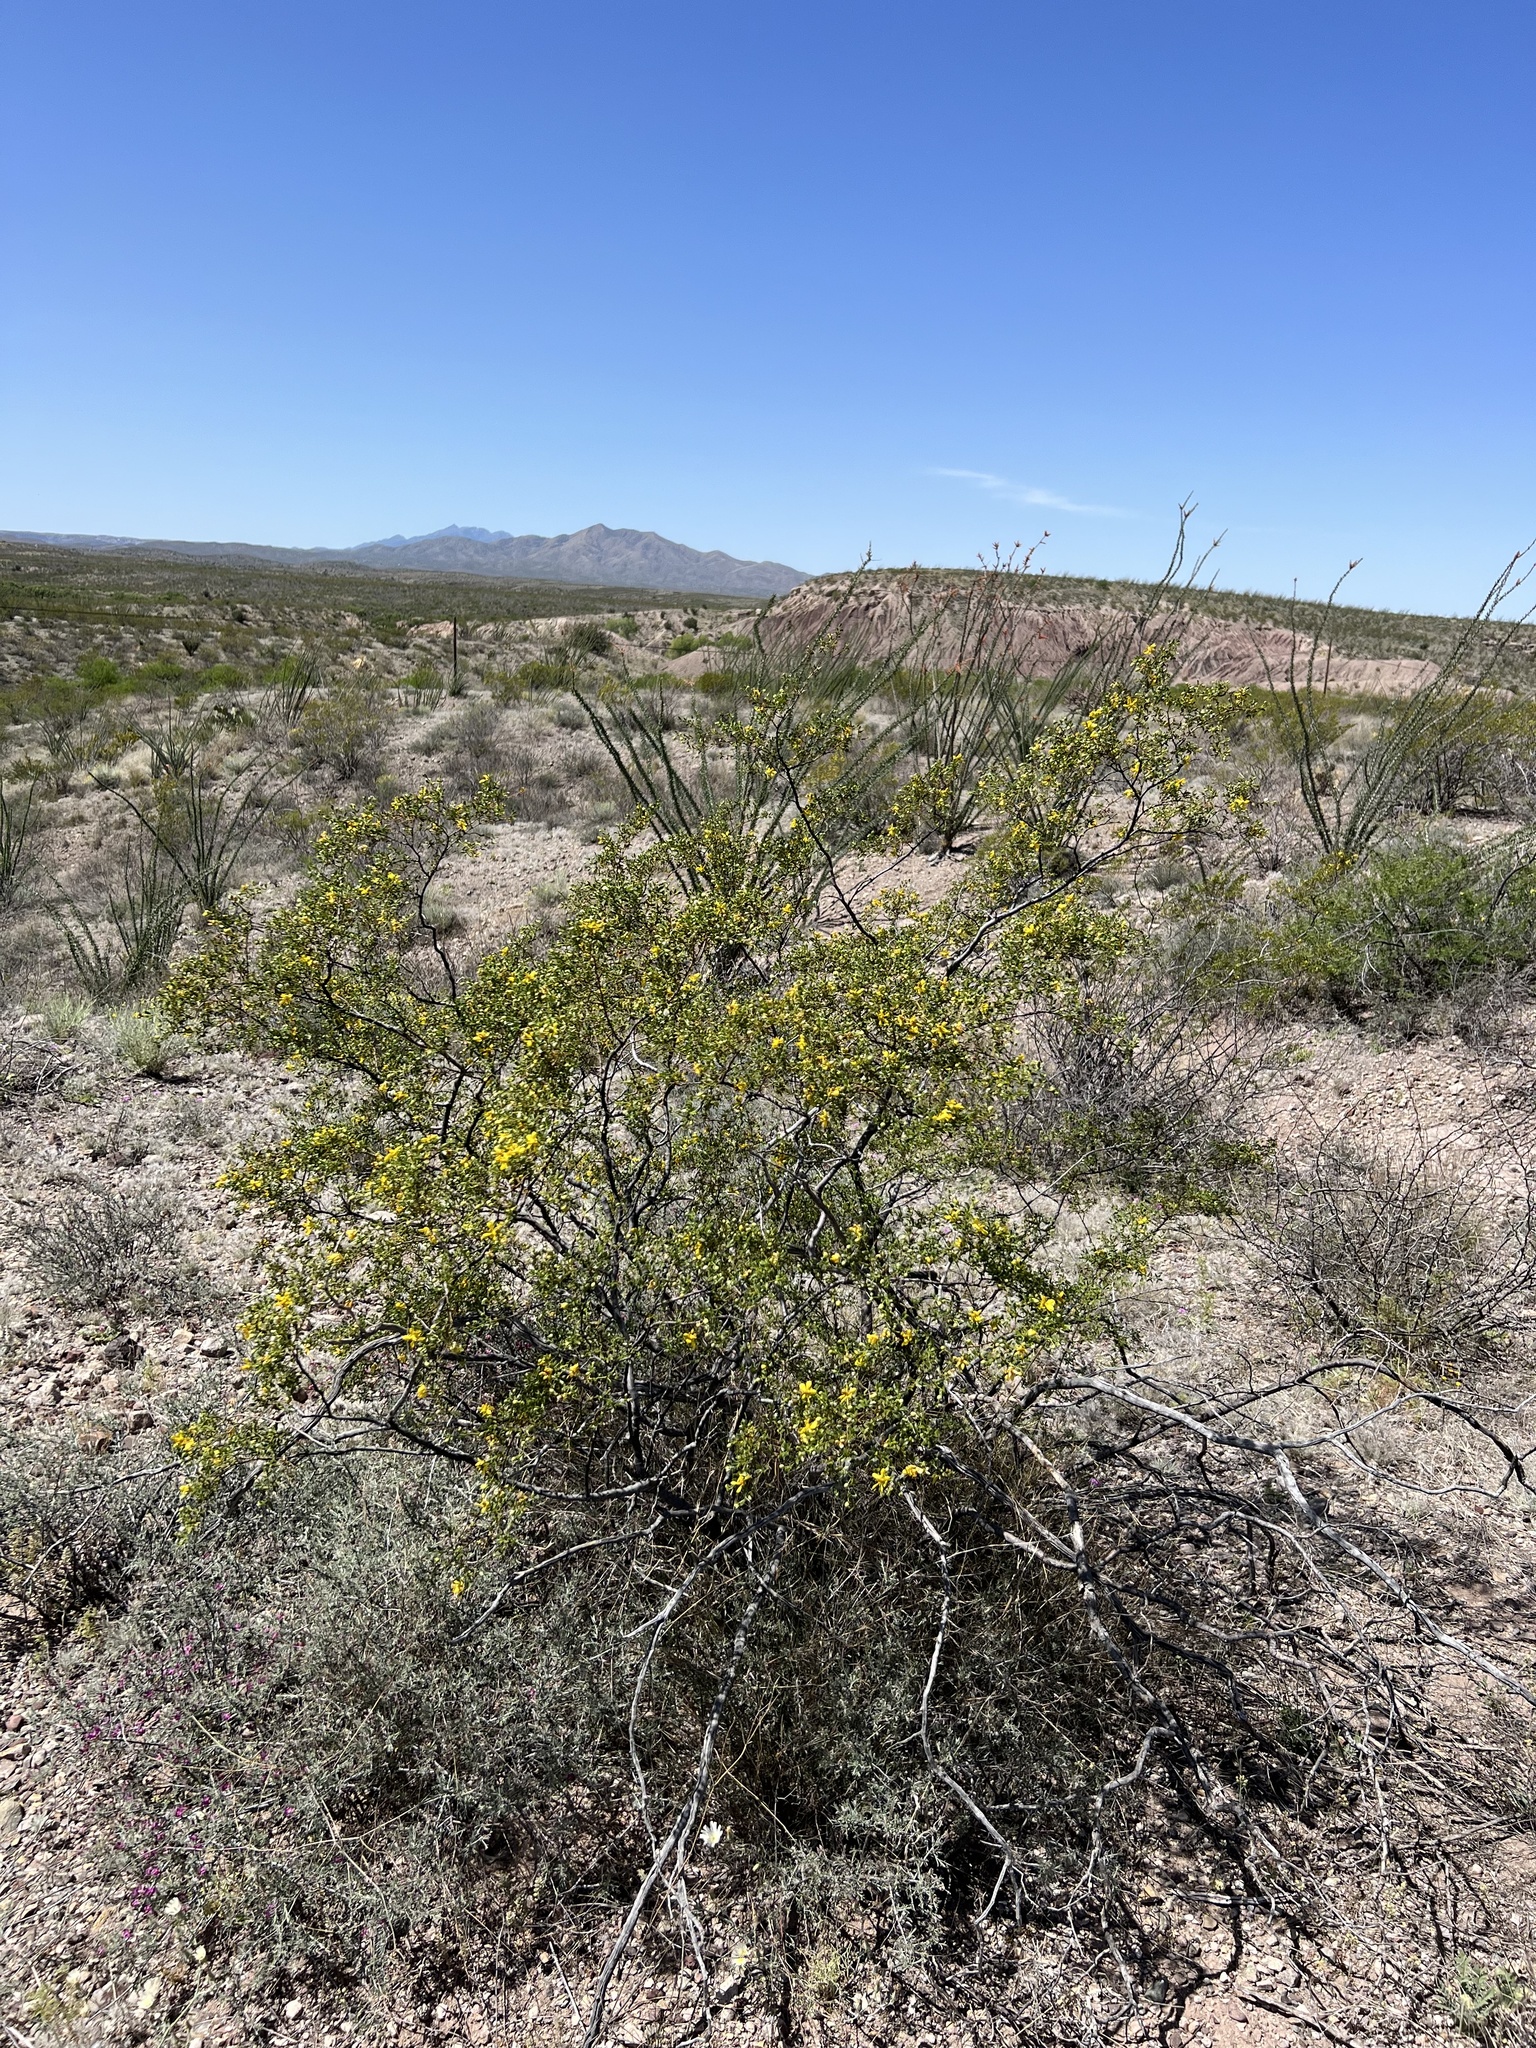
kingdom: Plantae
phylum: Tracheophyta
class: Magnoliopsida
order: Zygophyllales
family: Zygophyllaceae
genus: Larrea
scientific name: Larrea tridentata
